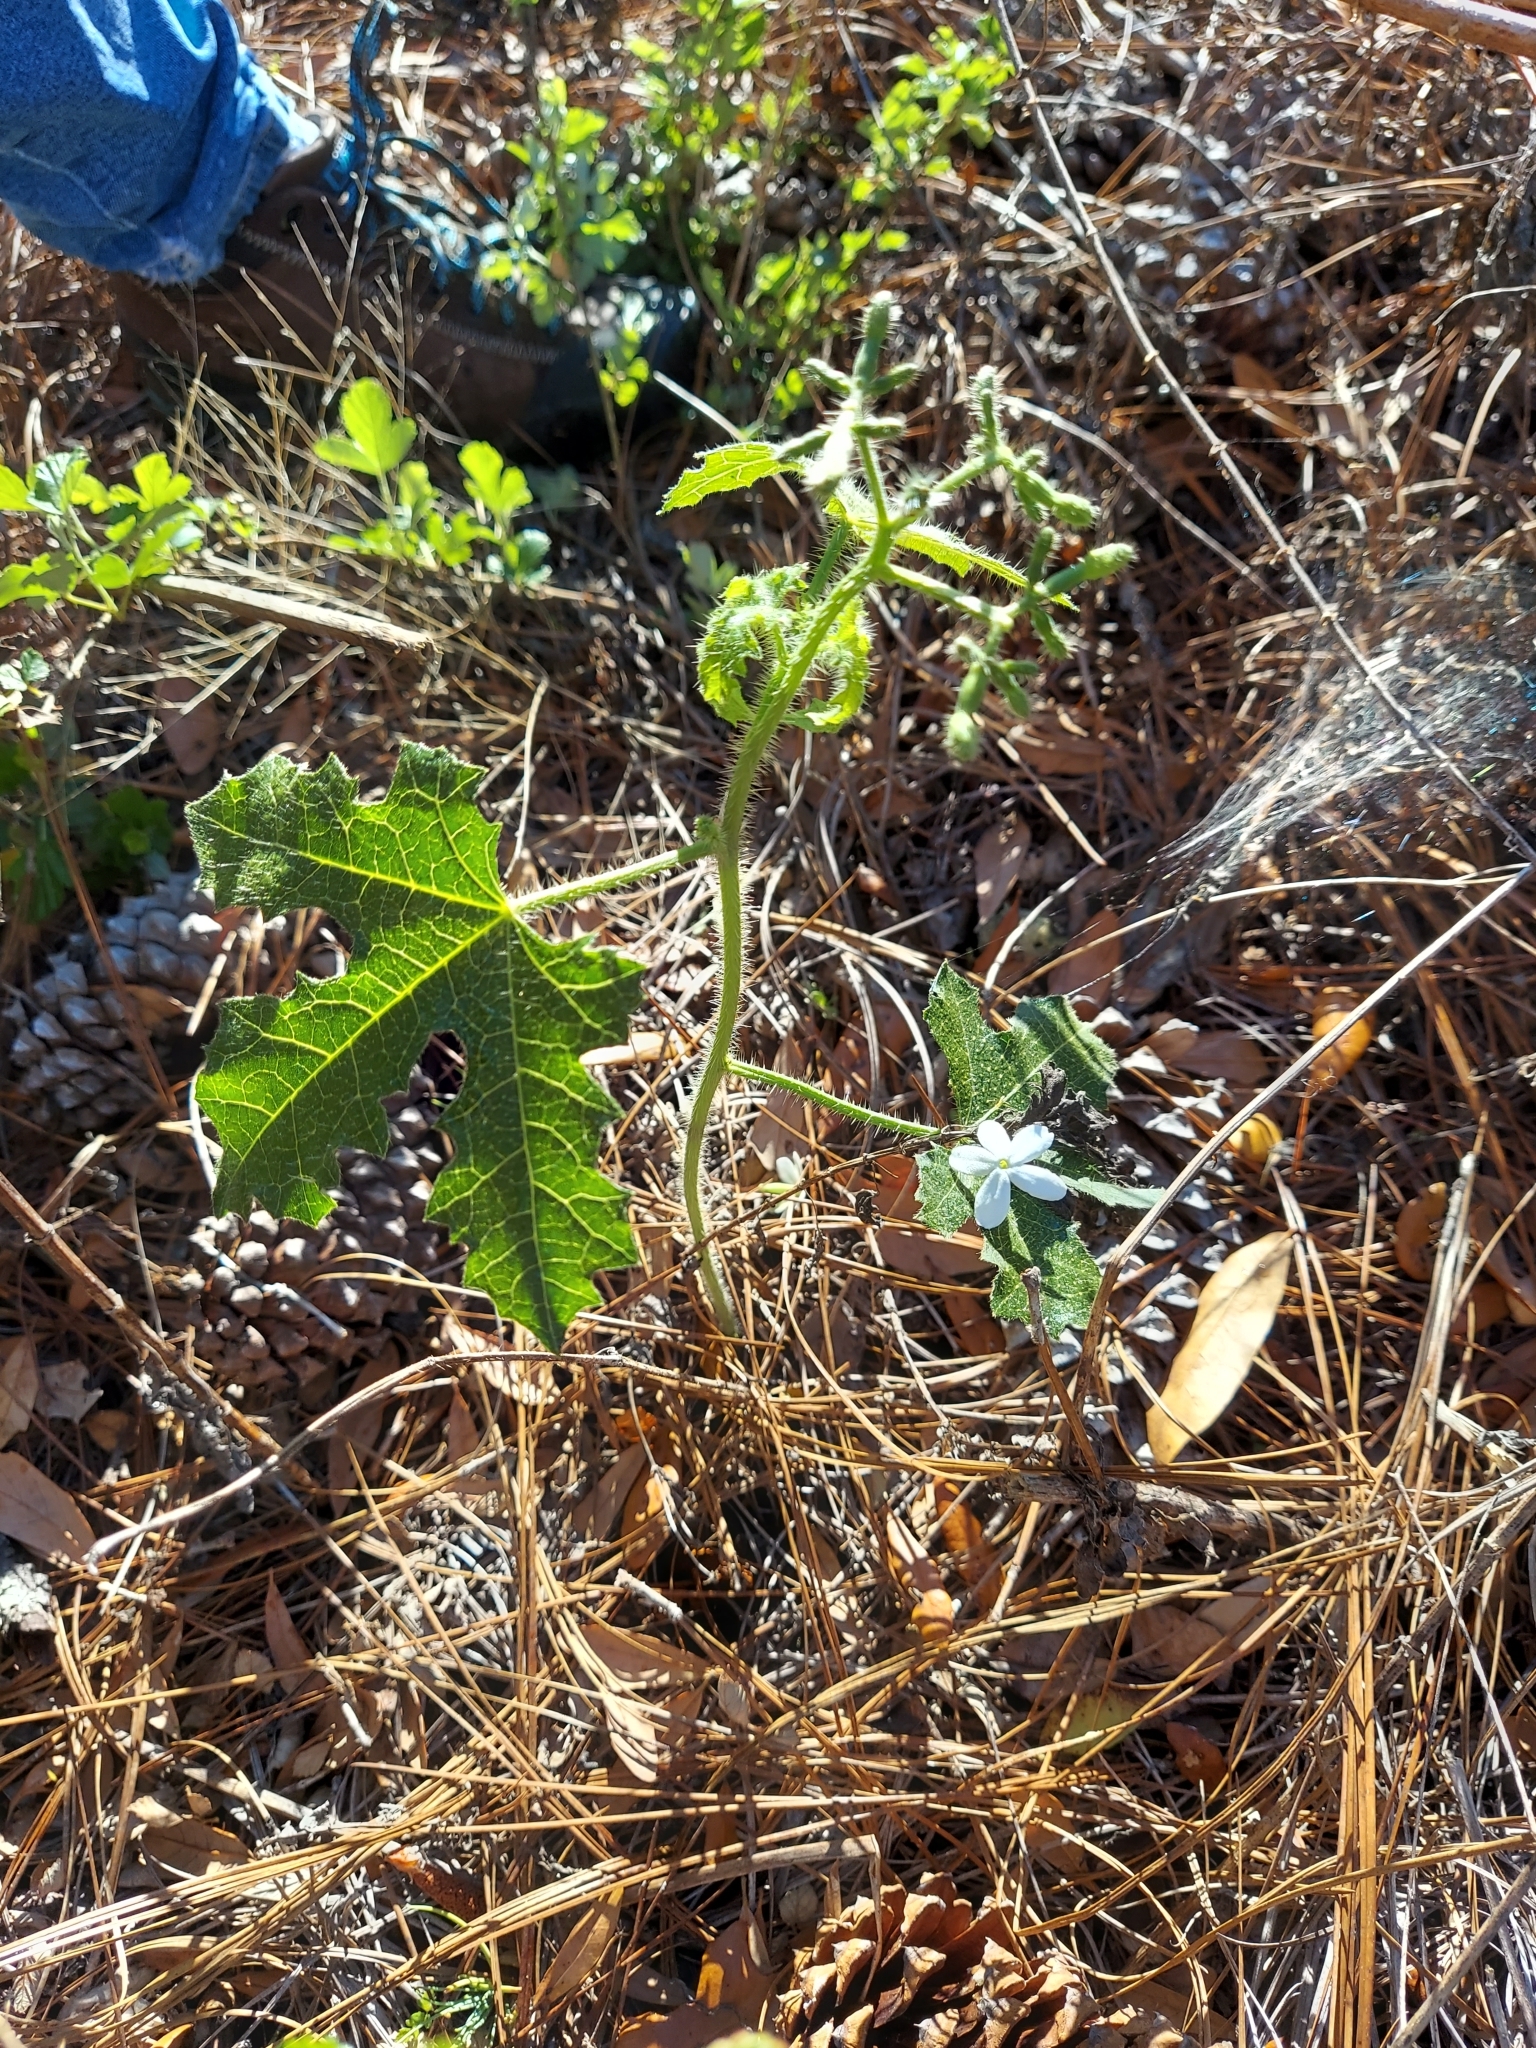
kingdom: Plantae
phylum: Tracheophyta
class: Magnoliopsida
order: Malpighiales
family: Euphorbiaceae
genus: Cnidoscolus
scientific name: Cnidoscolus stimulosus
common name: Bull-nettle
